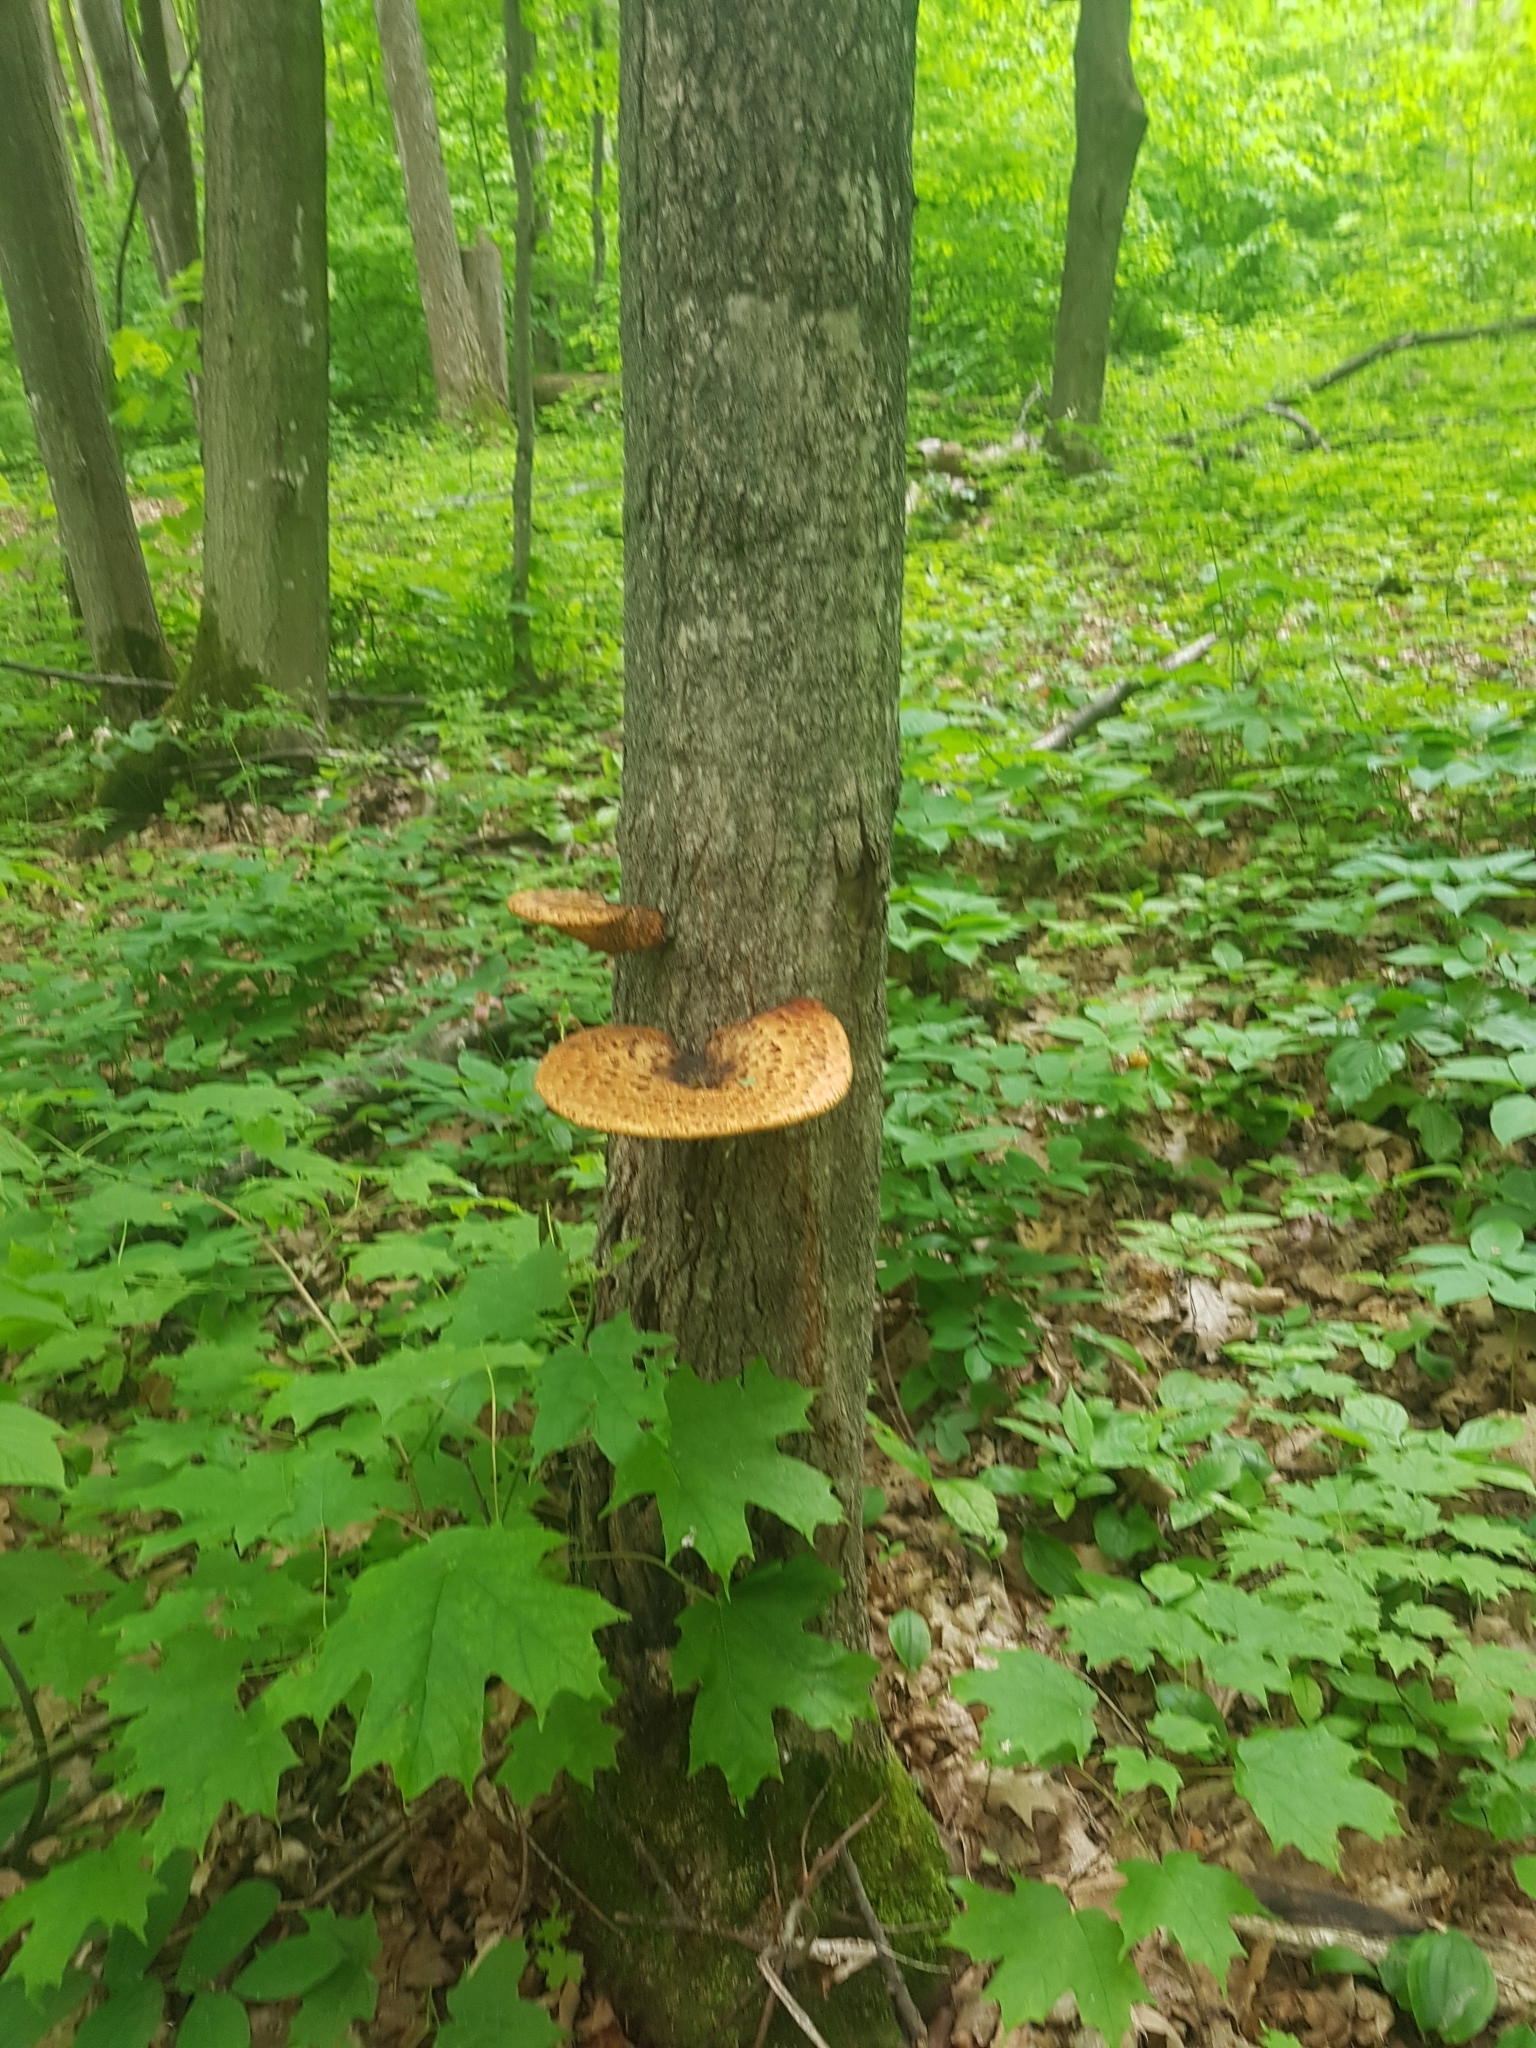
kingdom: Fungi
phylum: Basidiomycota
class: Agaricomycetes
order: Polyporales
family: Polyporaceae
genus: Cerioporus
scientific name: Cerioporus squamosus
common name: Dryad's saddle
